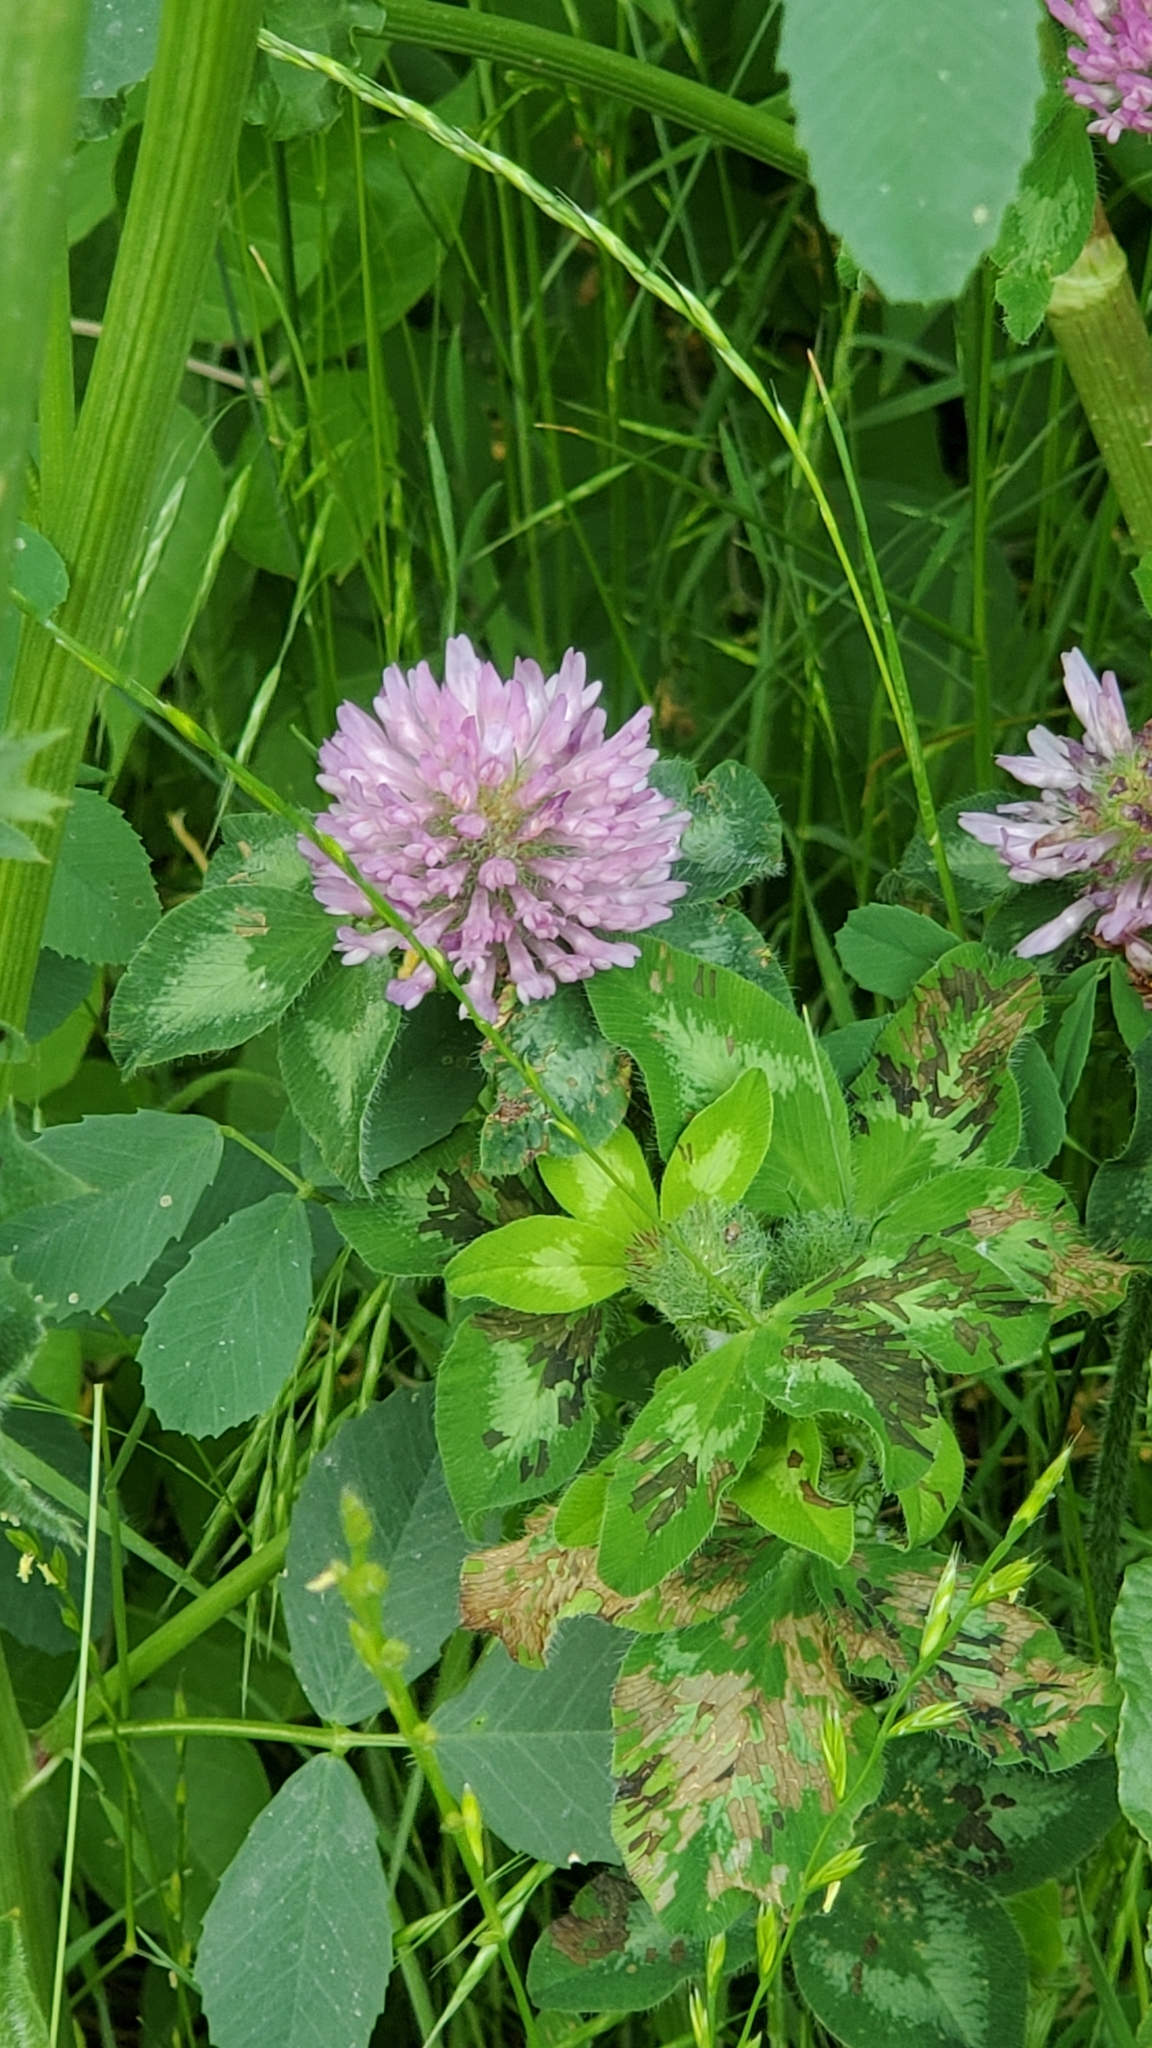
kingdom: Plantae
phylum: Tracheophyta
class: Magnoliopsida
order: Fabales
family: Fabaceae
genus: Trifolium
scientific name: Trifolium pratense
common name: Red clover
